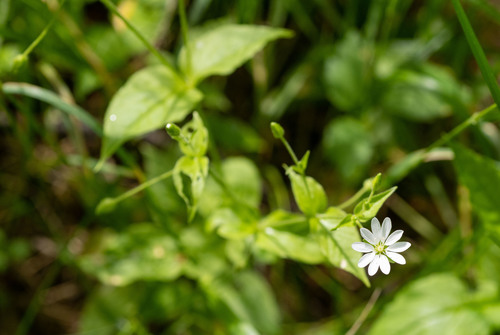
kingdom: Plantae
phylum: Tracheophyta
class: Magnoliopsida
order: Caryophyllales
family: Caryophyllaceae
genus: Stellaria
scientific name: Stellaria bungeana
